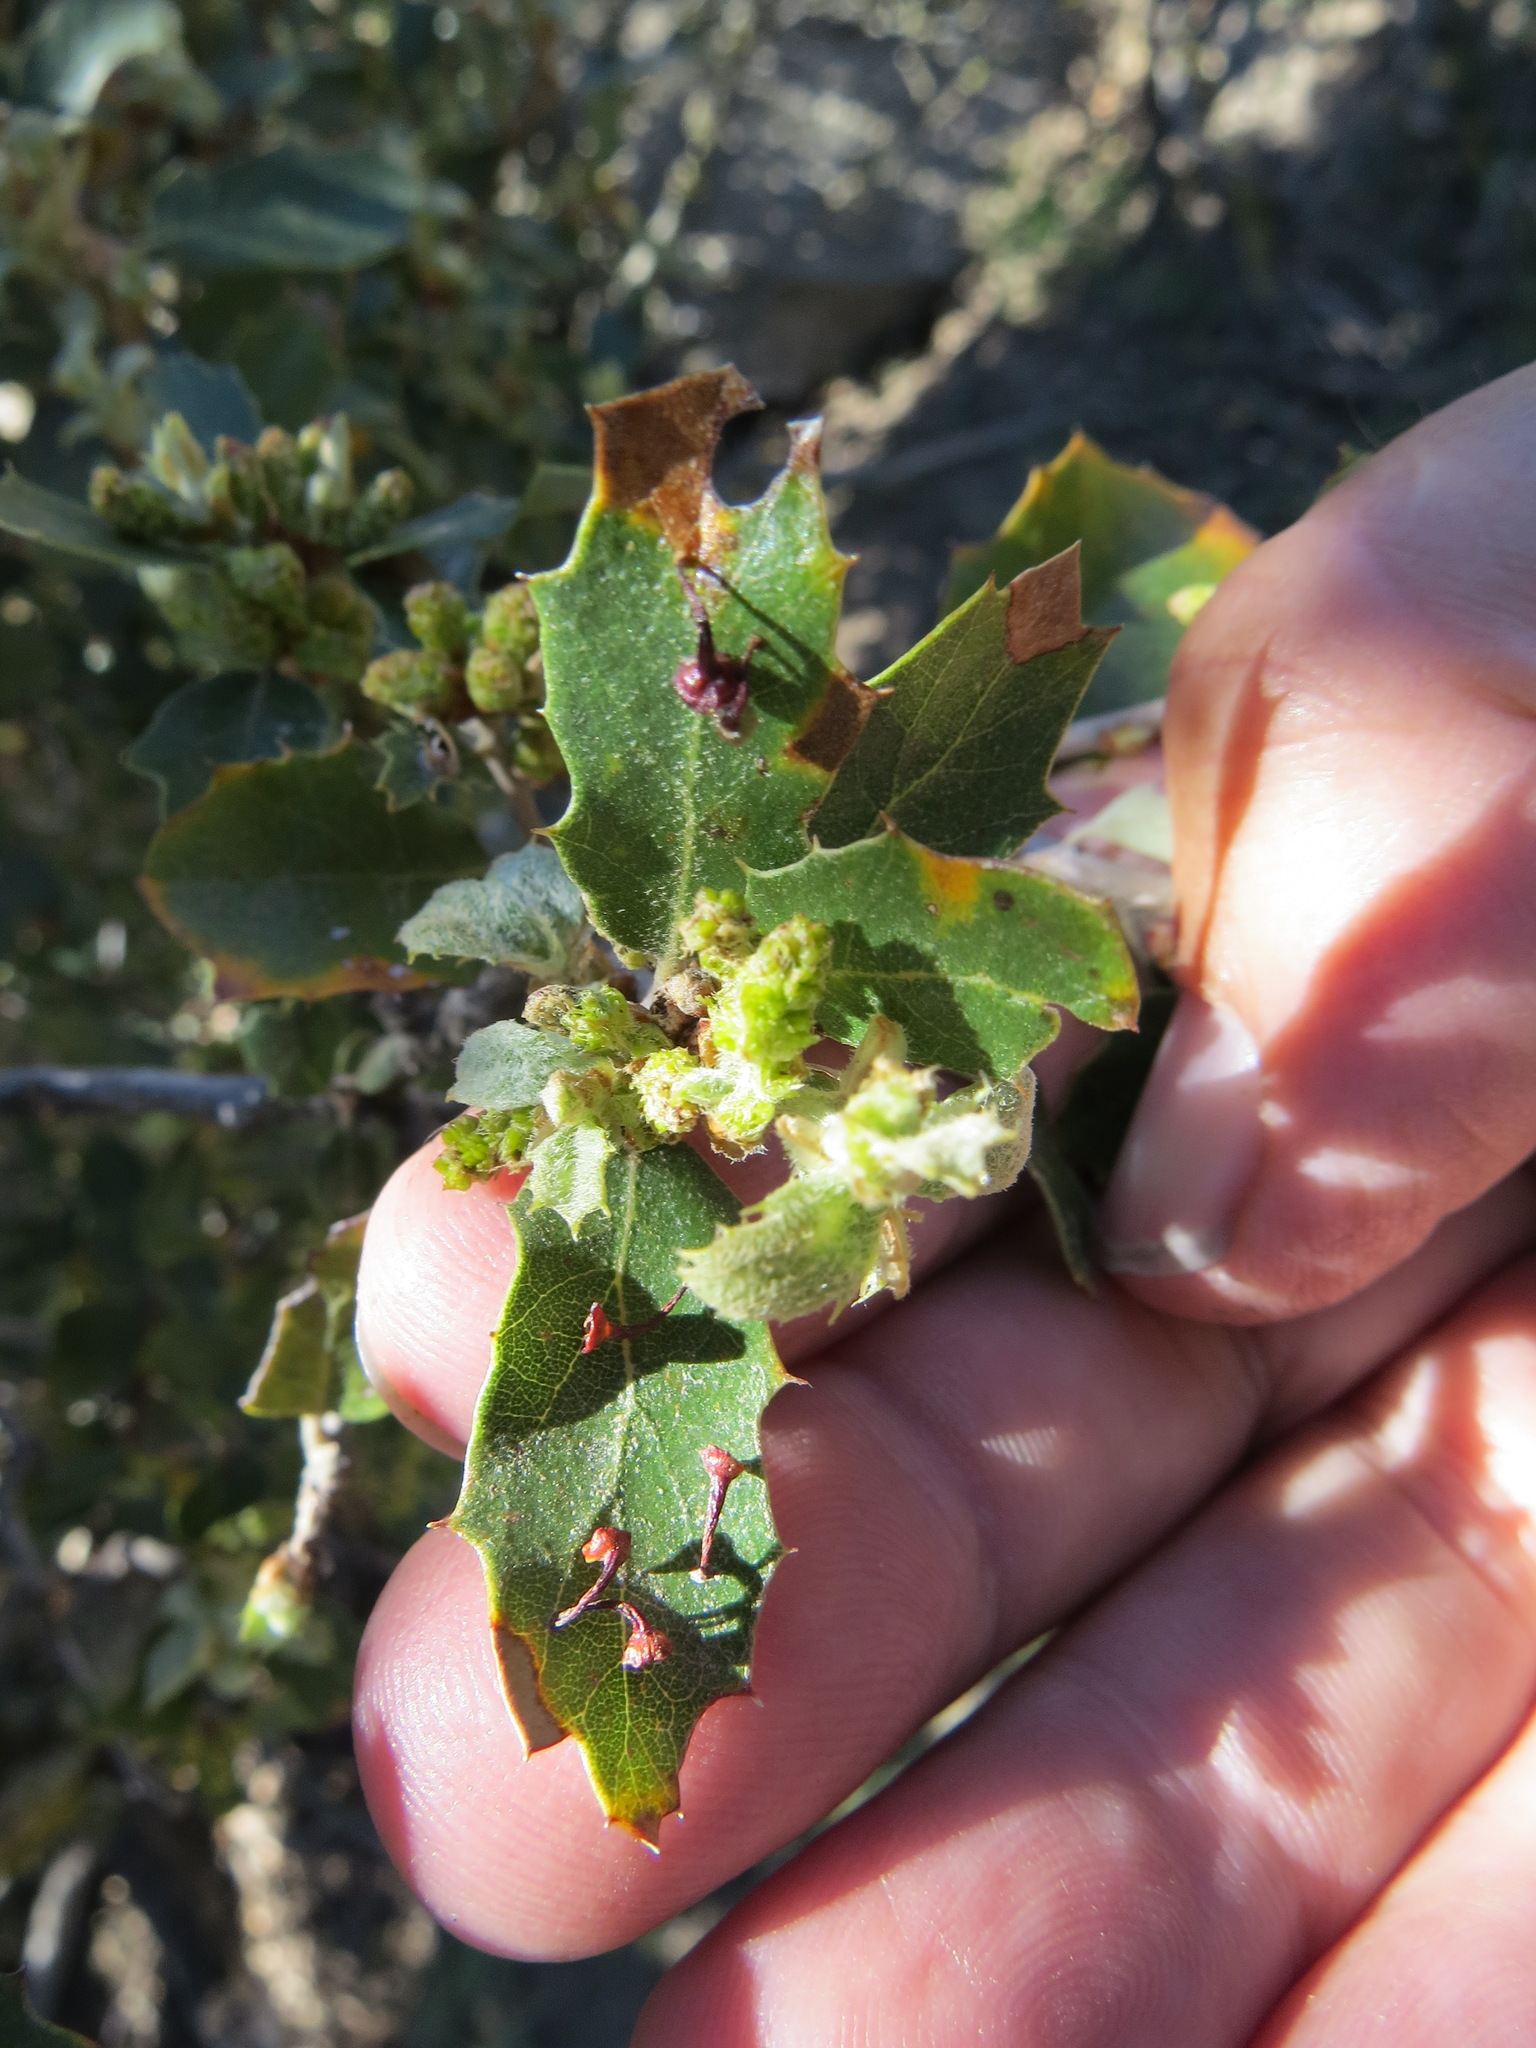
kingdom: Animalia
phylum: Arthropoda
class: Insecta
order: Hymenoptera
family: Cynipidae
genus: Andricus
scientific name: Andricus
